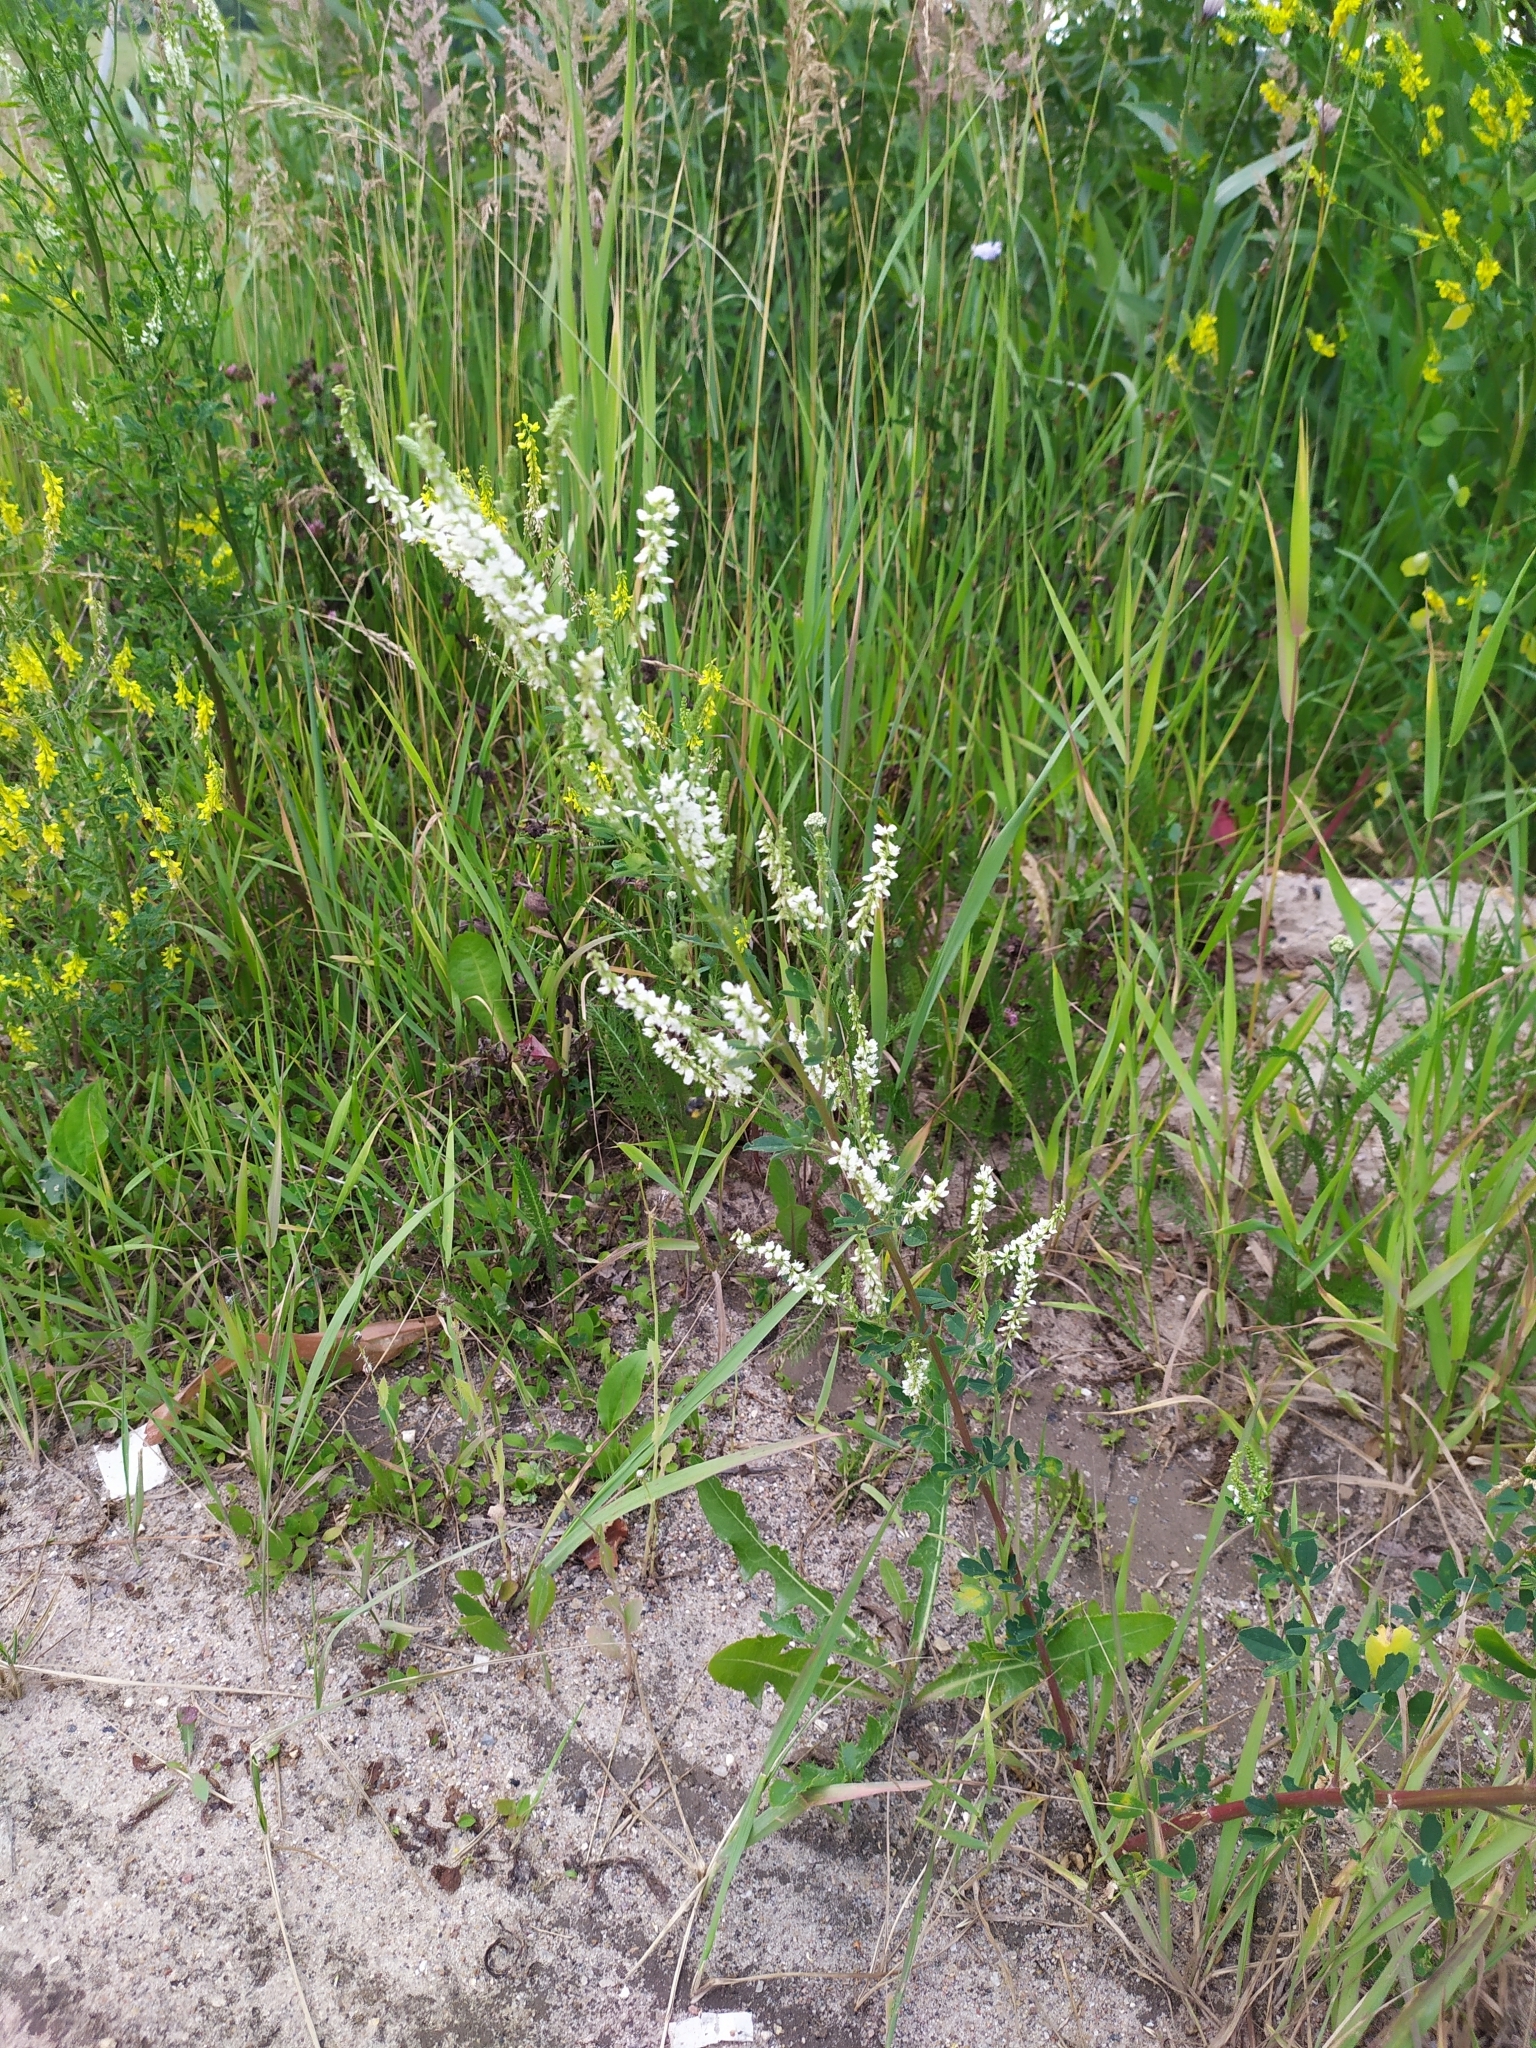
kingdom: Plantae
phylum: Tracheophyta
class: Magnoliopsida
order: Fabales
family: Fabaceae
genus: Melilotus
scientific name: Melilotus albus
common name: White melilot
